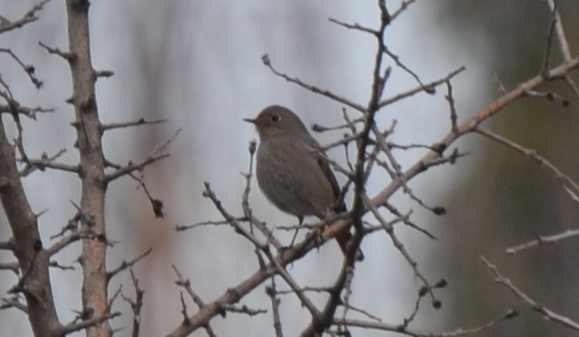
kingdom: Animalia
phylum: Chordata
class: Aves
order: Passeriformes
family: Muscicapidae
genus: Phoenicurus
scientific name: Phoenicurus ochruros
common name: Black redstart
